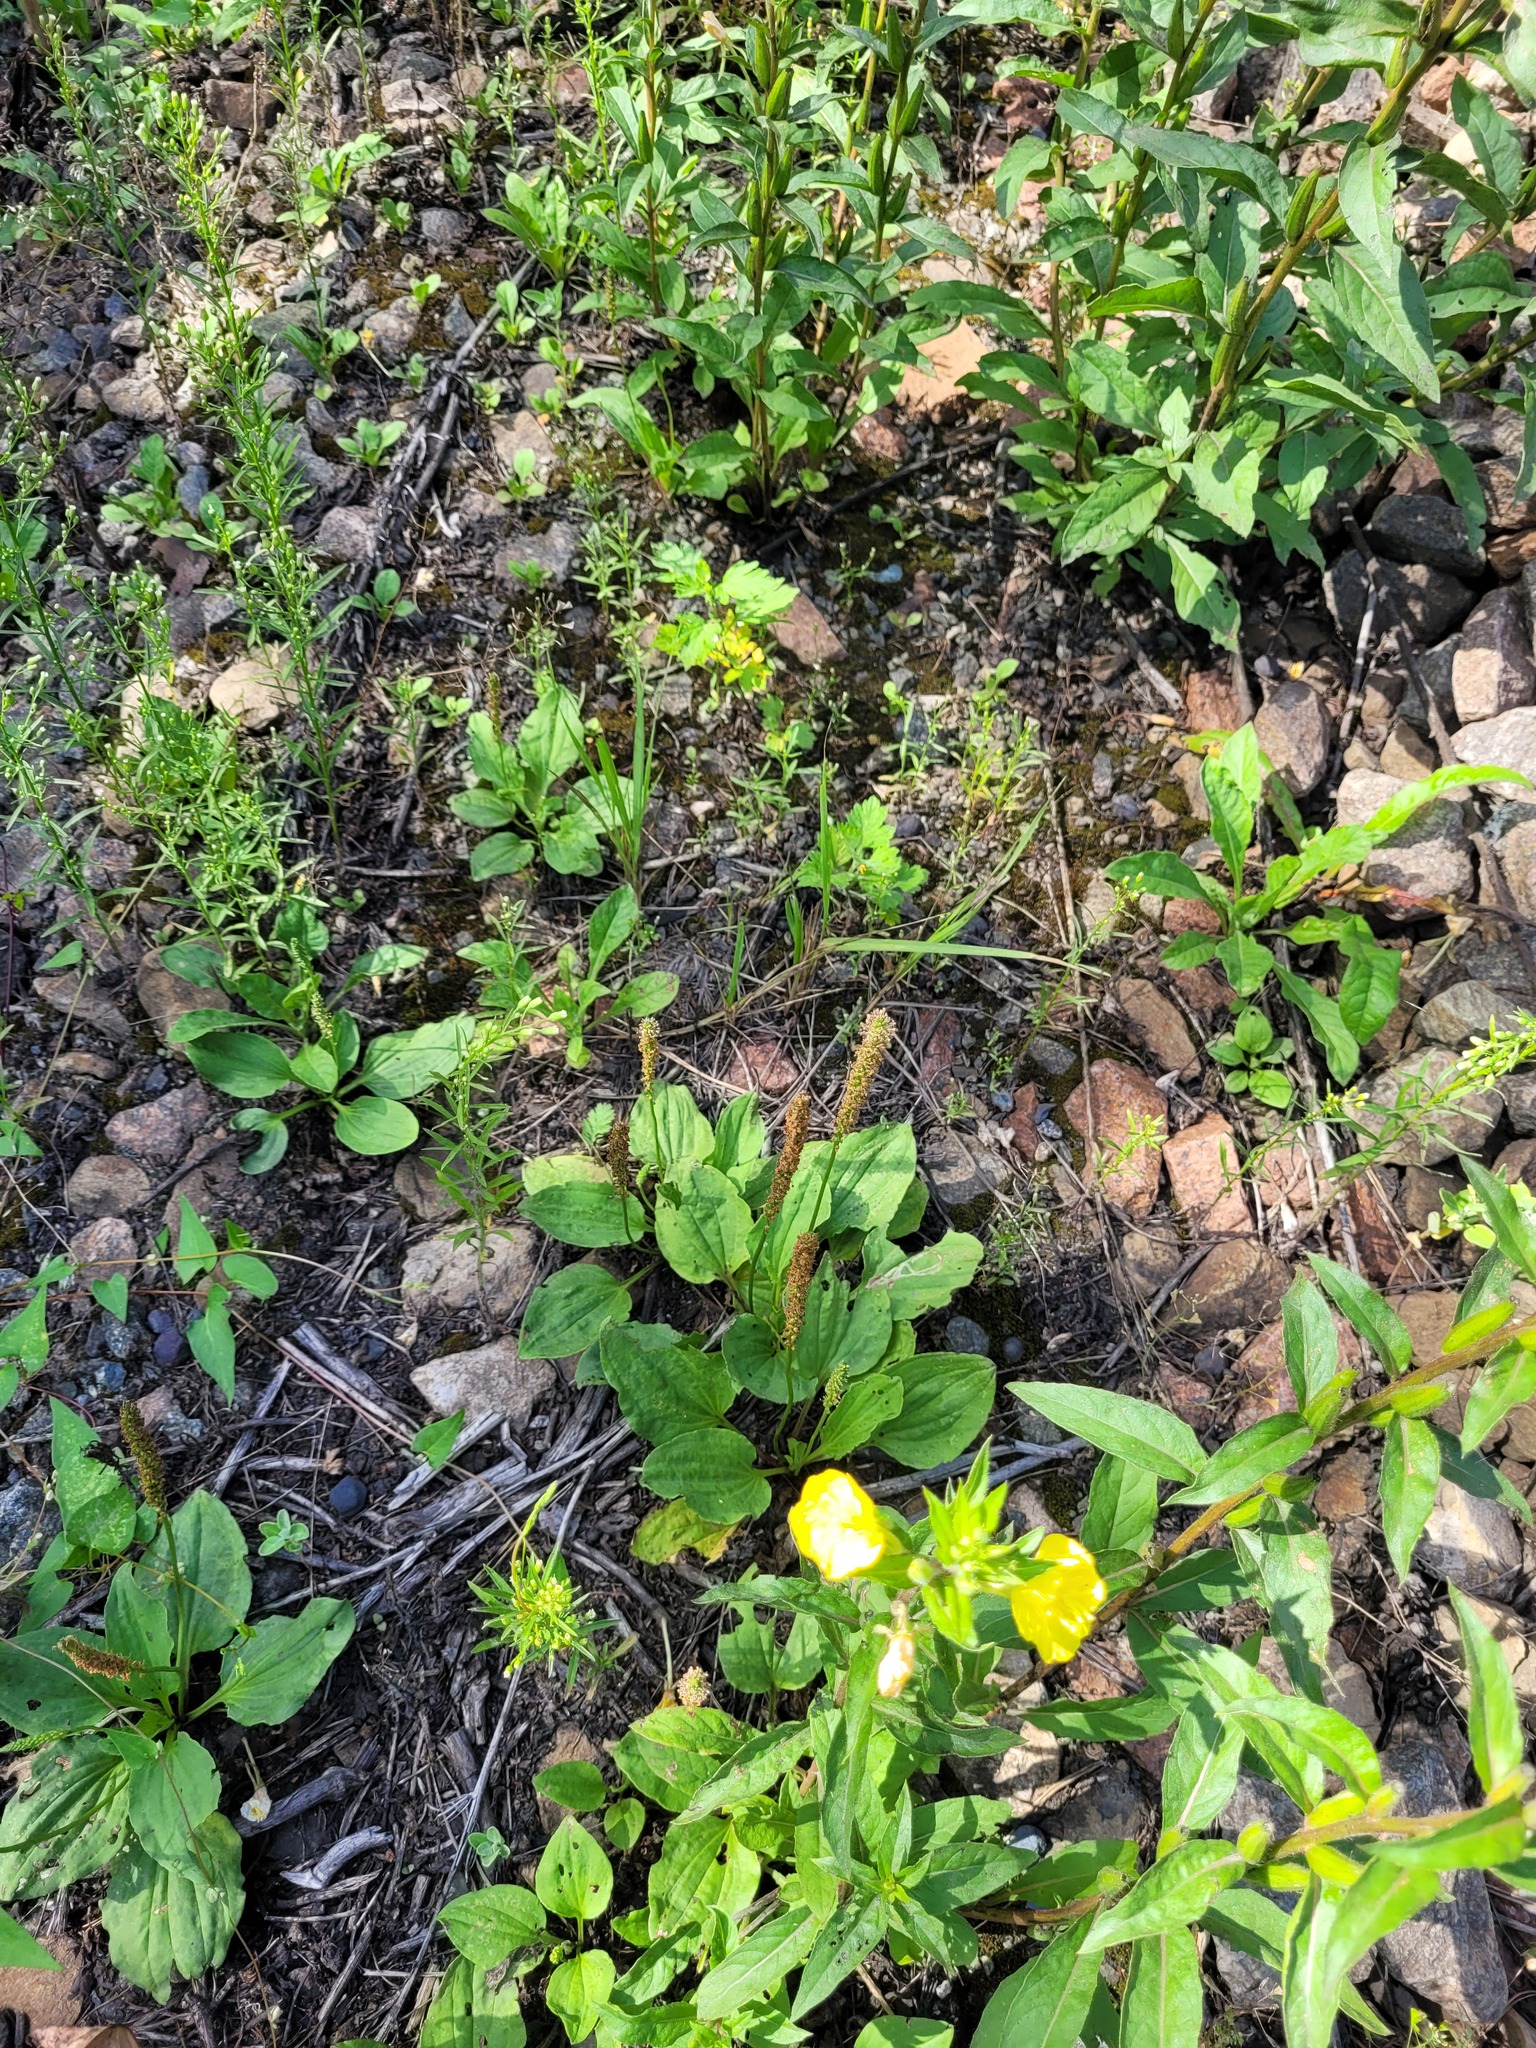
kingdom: Plantae
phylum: Tracheophyta
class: Magnoliopsida
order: Lamiales
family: Plantaginaceae
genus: Plantago
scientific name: Plantago major
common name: Common plantain
